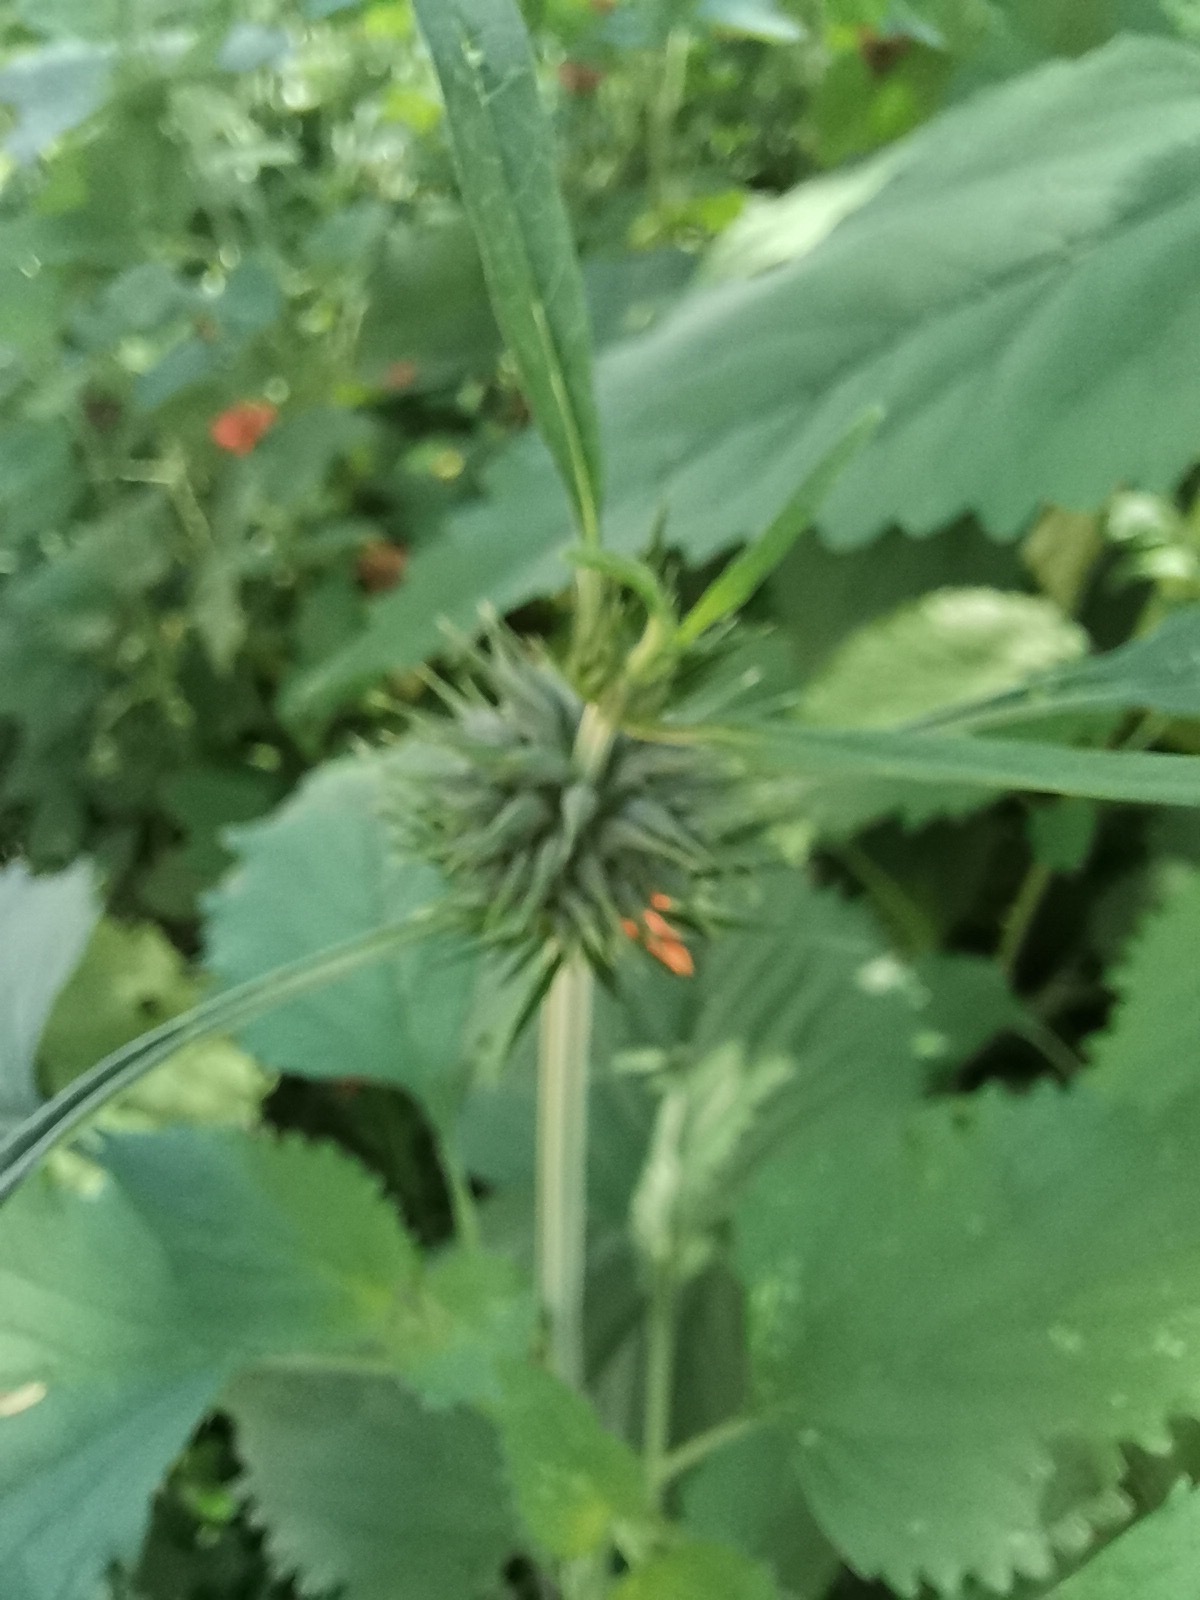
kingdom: Plantae
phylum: Tracheophyta
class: Magnoliopsida
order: Lamiales
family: Lamiaceae
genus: Leonotis
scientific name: Leonotis nepetifolia
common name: Christmas candlestick
